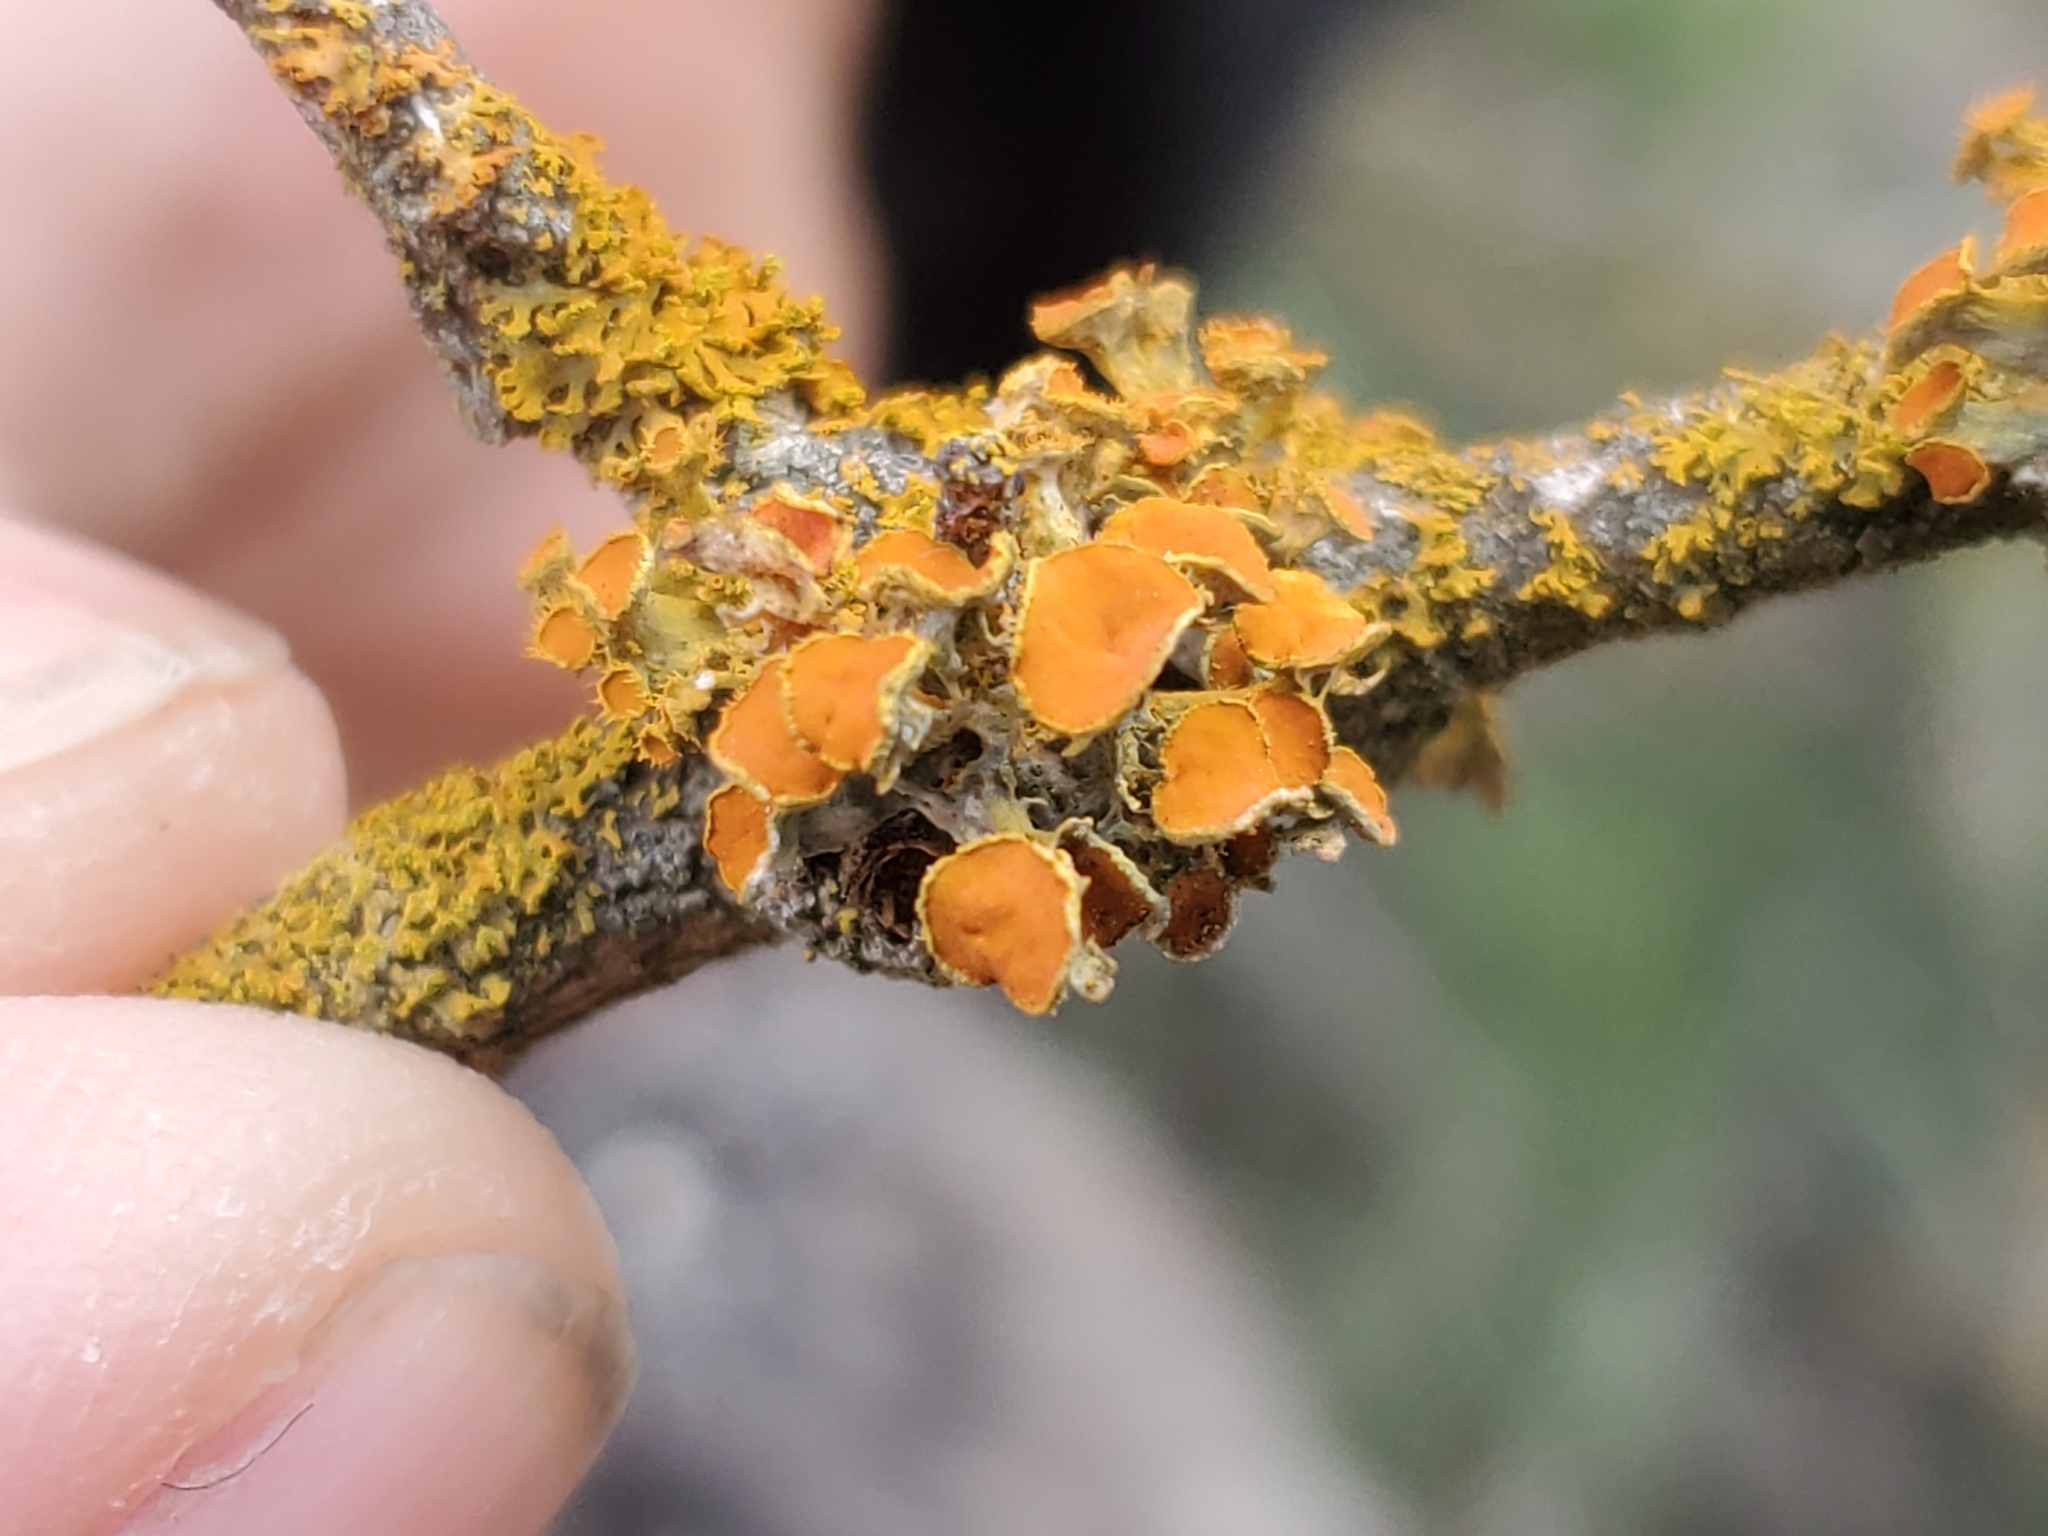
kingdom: Fungi
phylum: Ascomycota
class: Lecanoromycetes
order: Teloschistales
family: Teloschistaceae
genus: Niorma
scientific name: Niorma chrysophthalma
